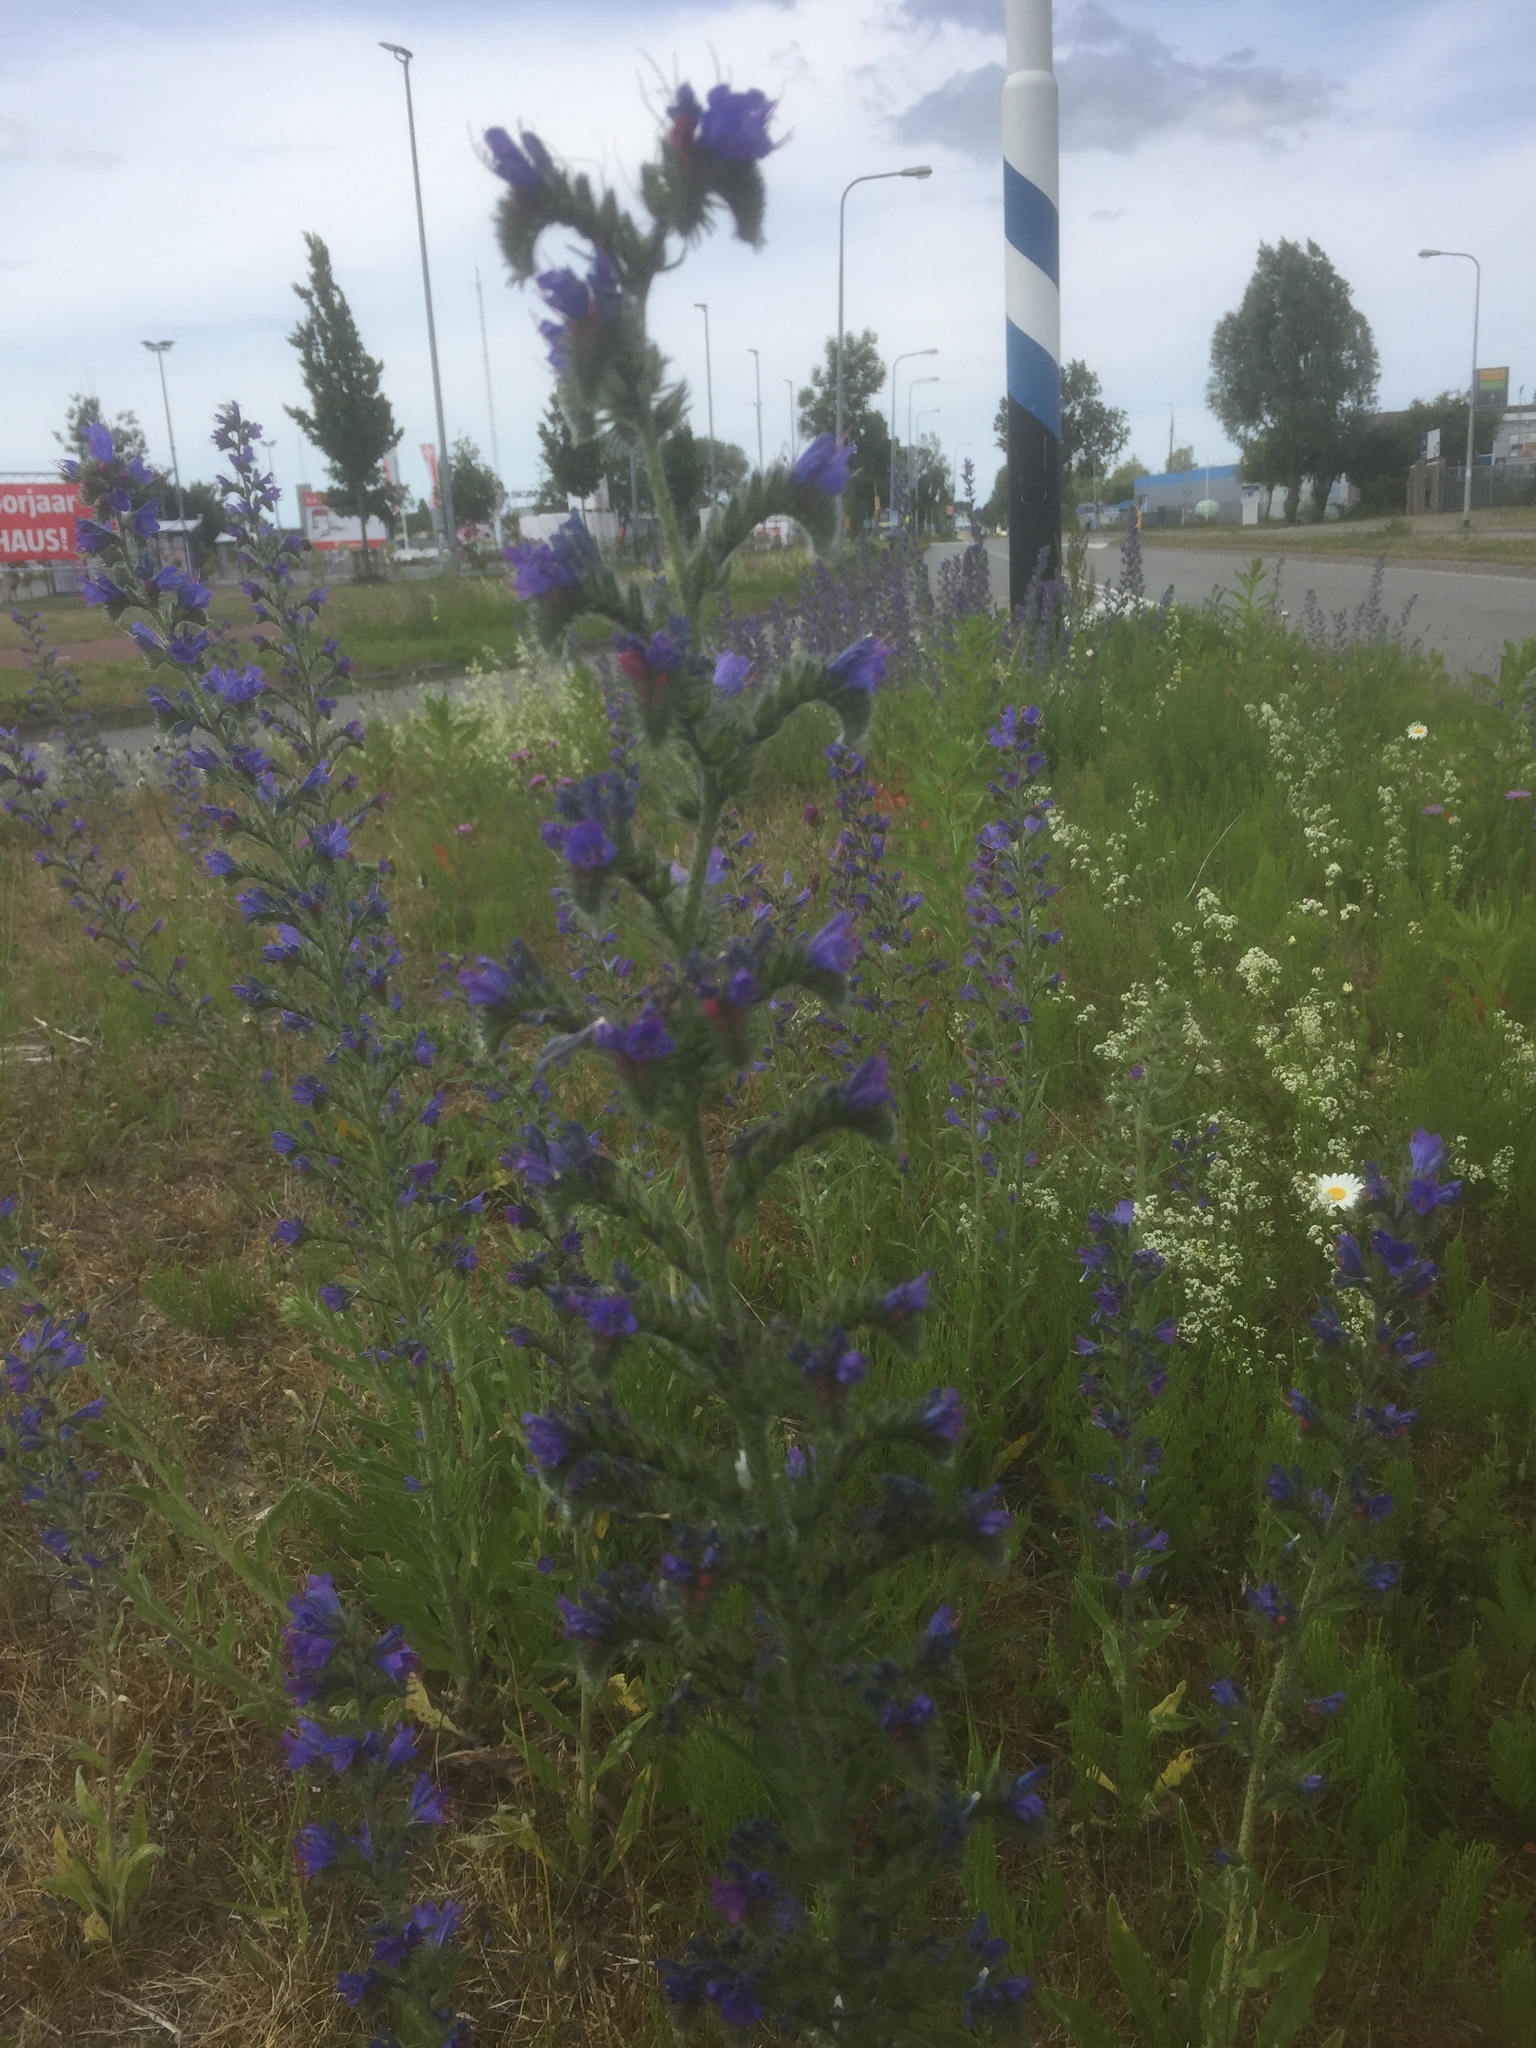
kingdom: Plantae
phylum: Tracheophyta
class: Magnoliopsida
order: Boraginales
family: Boraginaceae
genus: Echium
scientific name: Echium vulgare
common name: Common viper's bugloss
